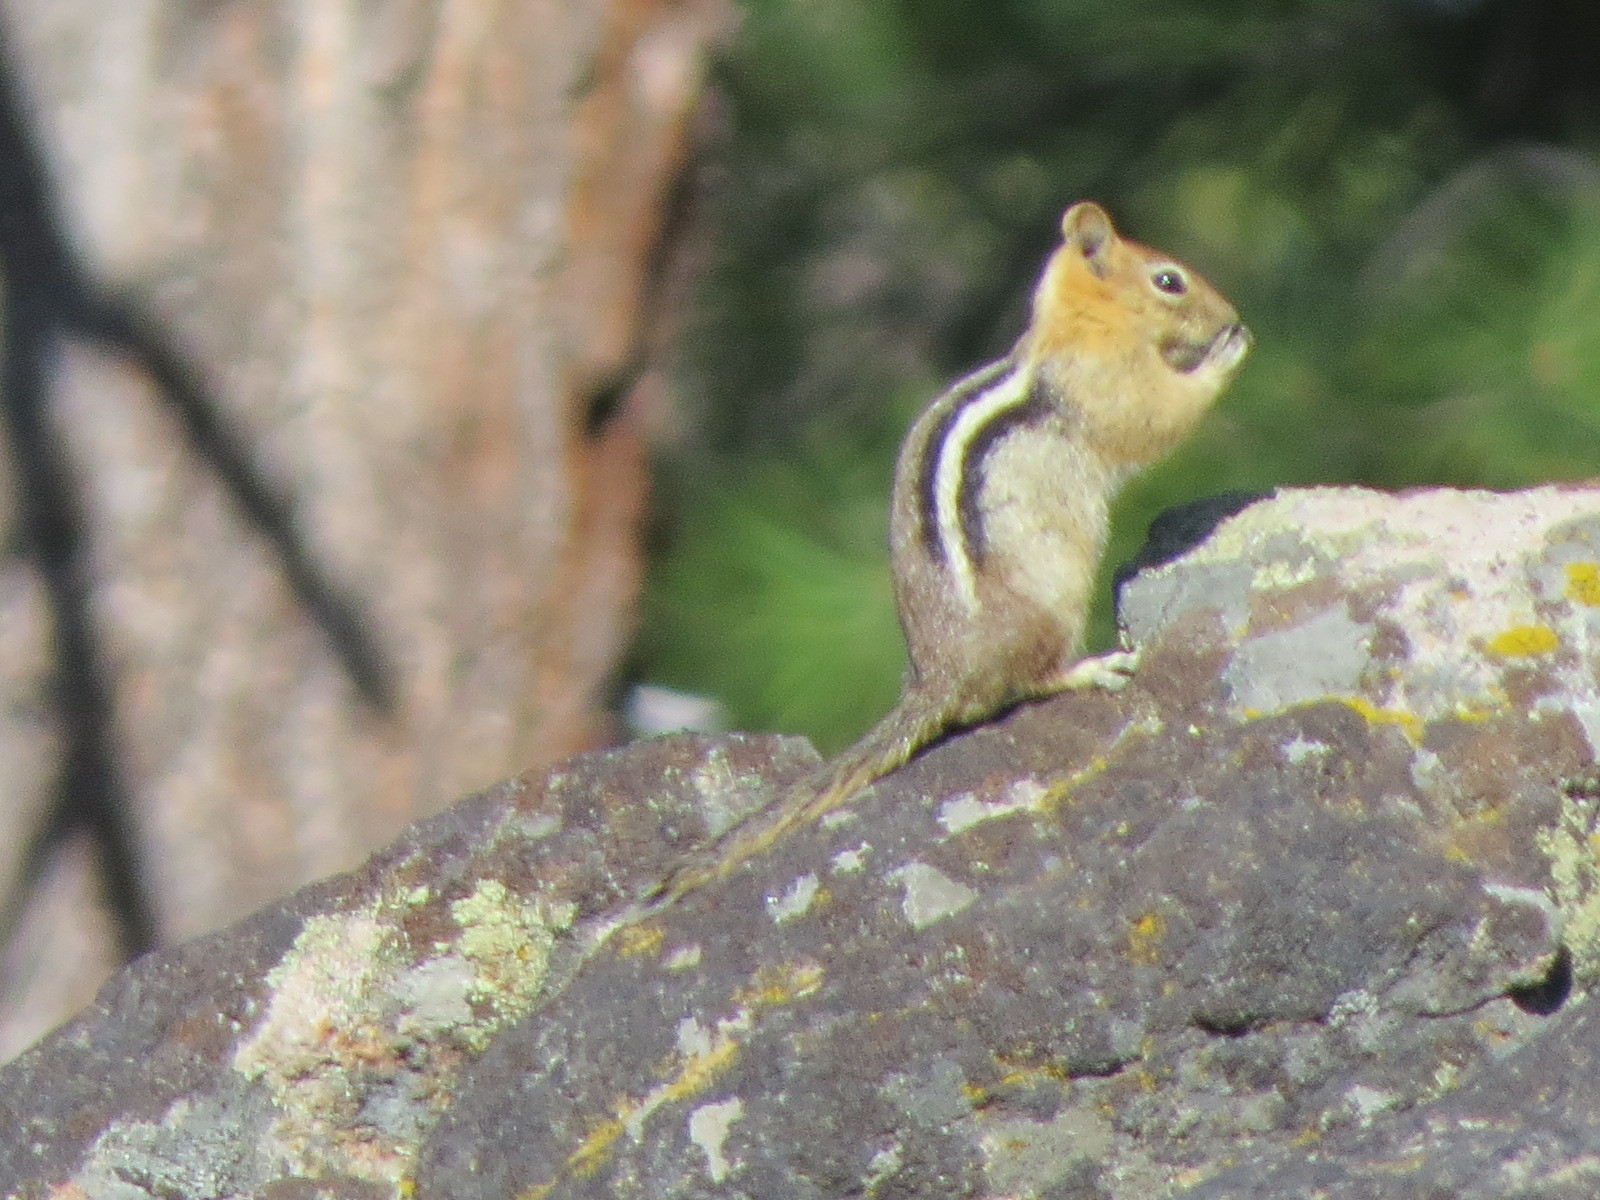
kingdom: Animalia
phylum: Chordata
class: Mammalia
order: Rodentia
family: Sciuridae
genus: Callospermophilus
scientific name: Callospermophilus lateralis
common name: Golden-mantled ground squirrel
